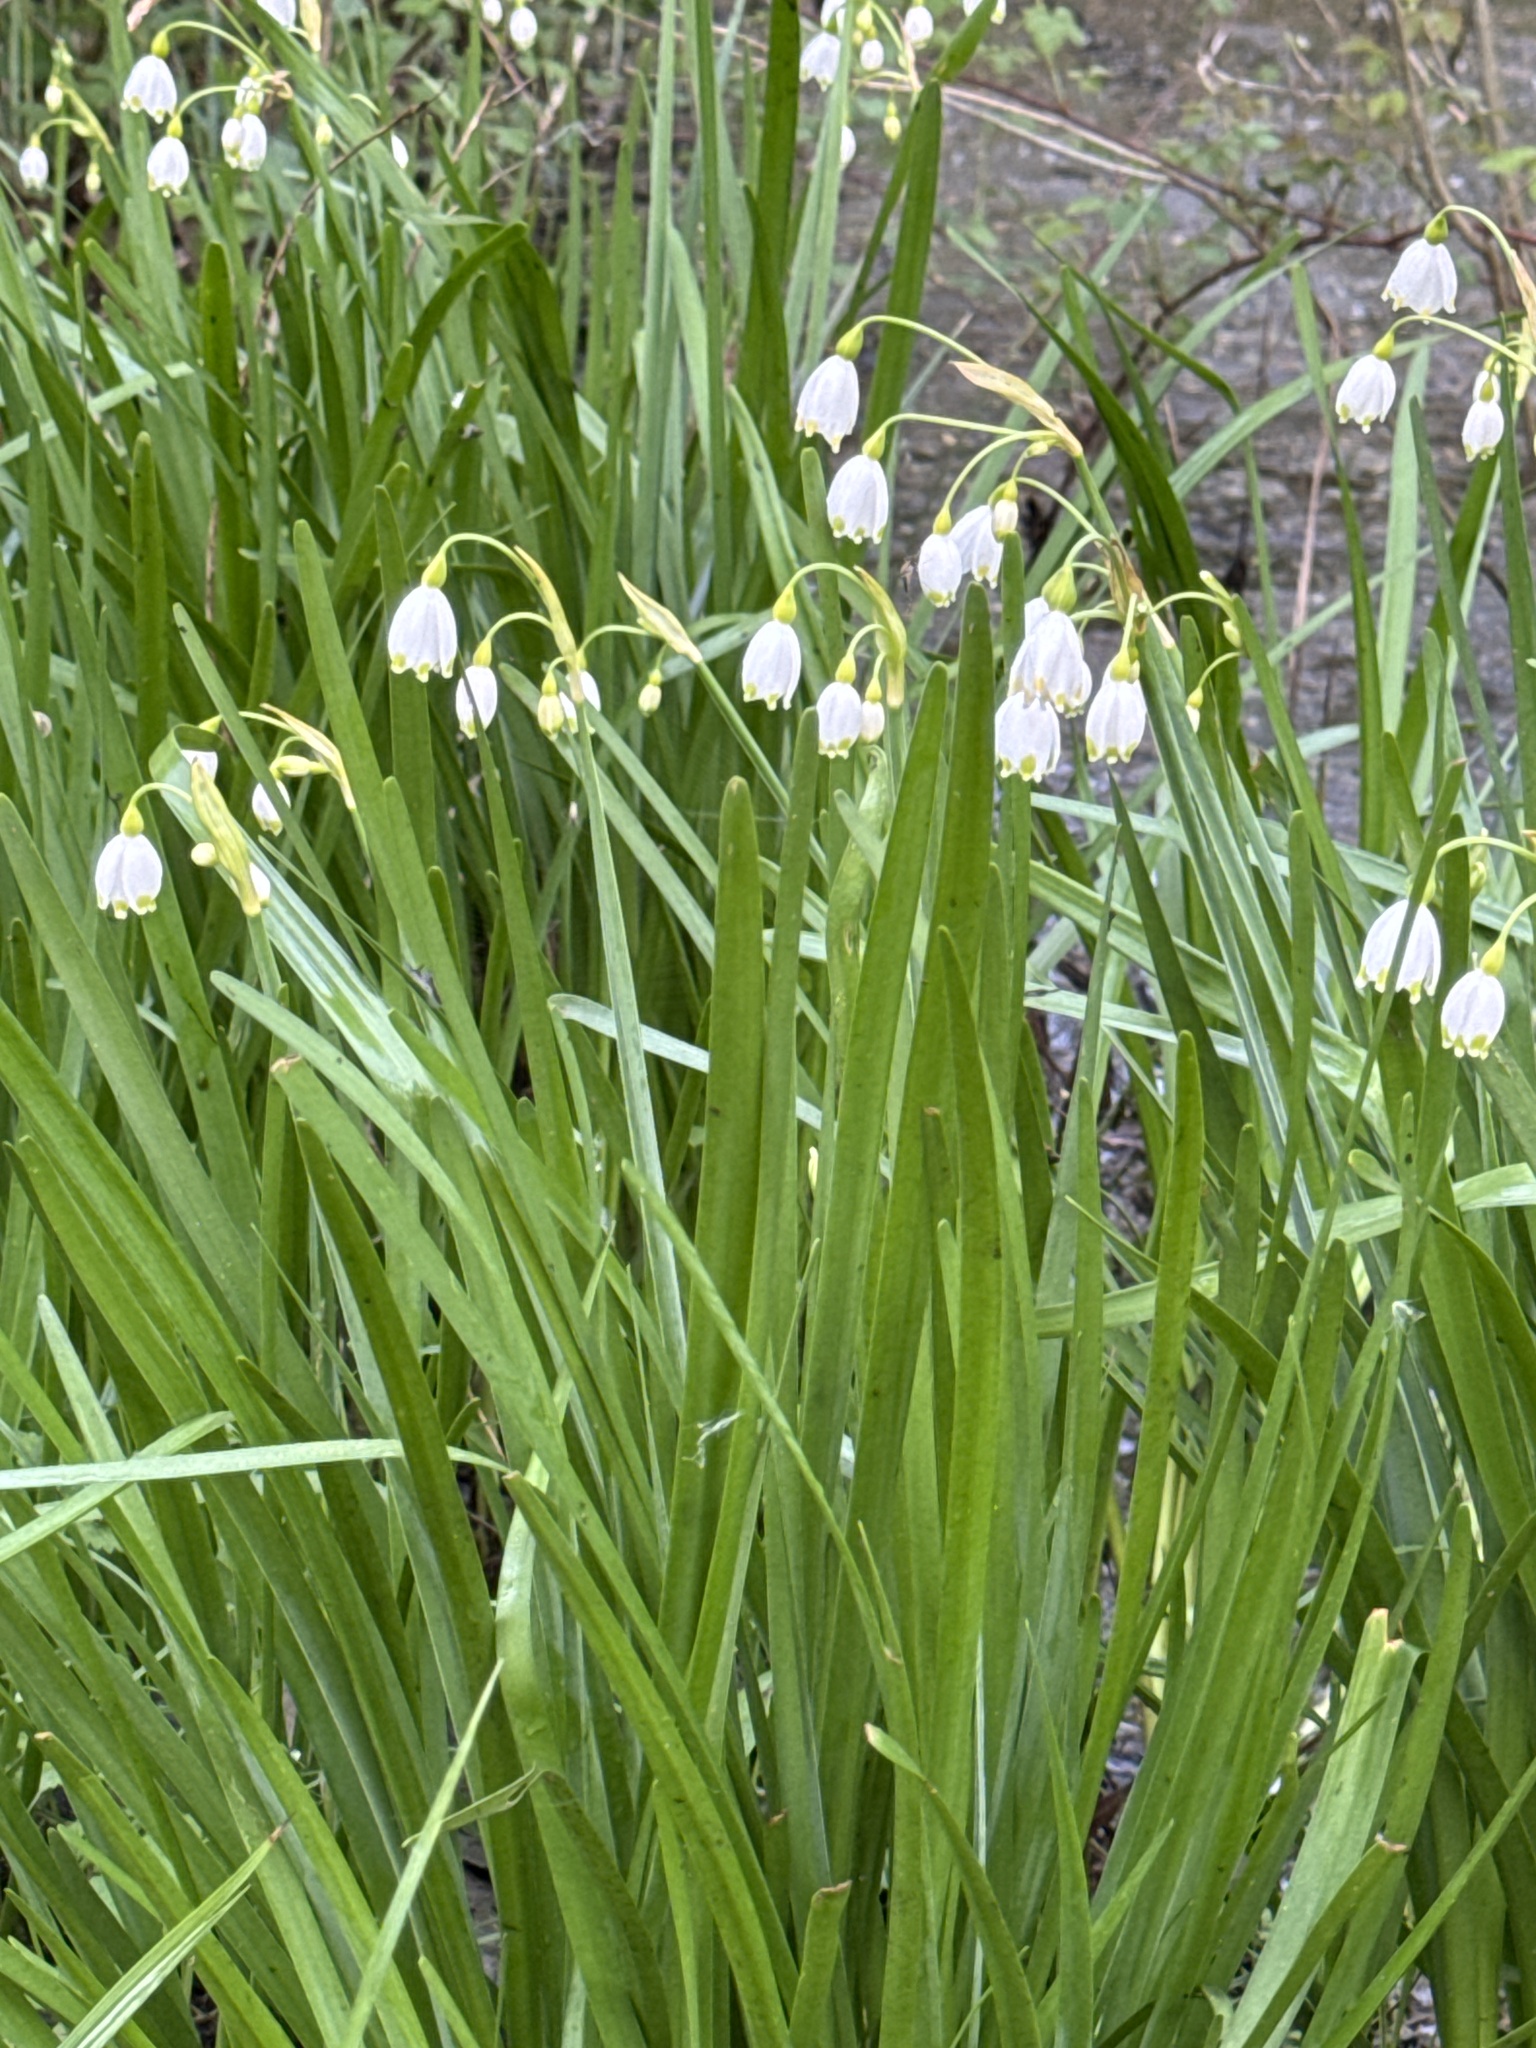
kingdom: Plantae
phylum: Tracheophyta
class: Liliopsida
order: Asparagales
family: Amaryllidaceae
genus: Leucojum
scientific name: Leucojum aestivum
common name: Summer snowflake
